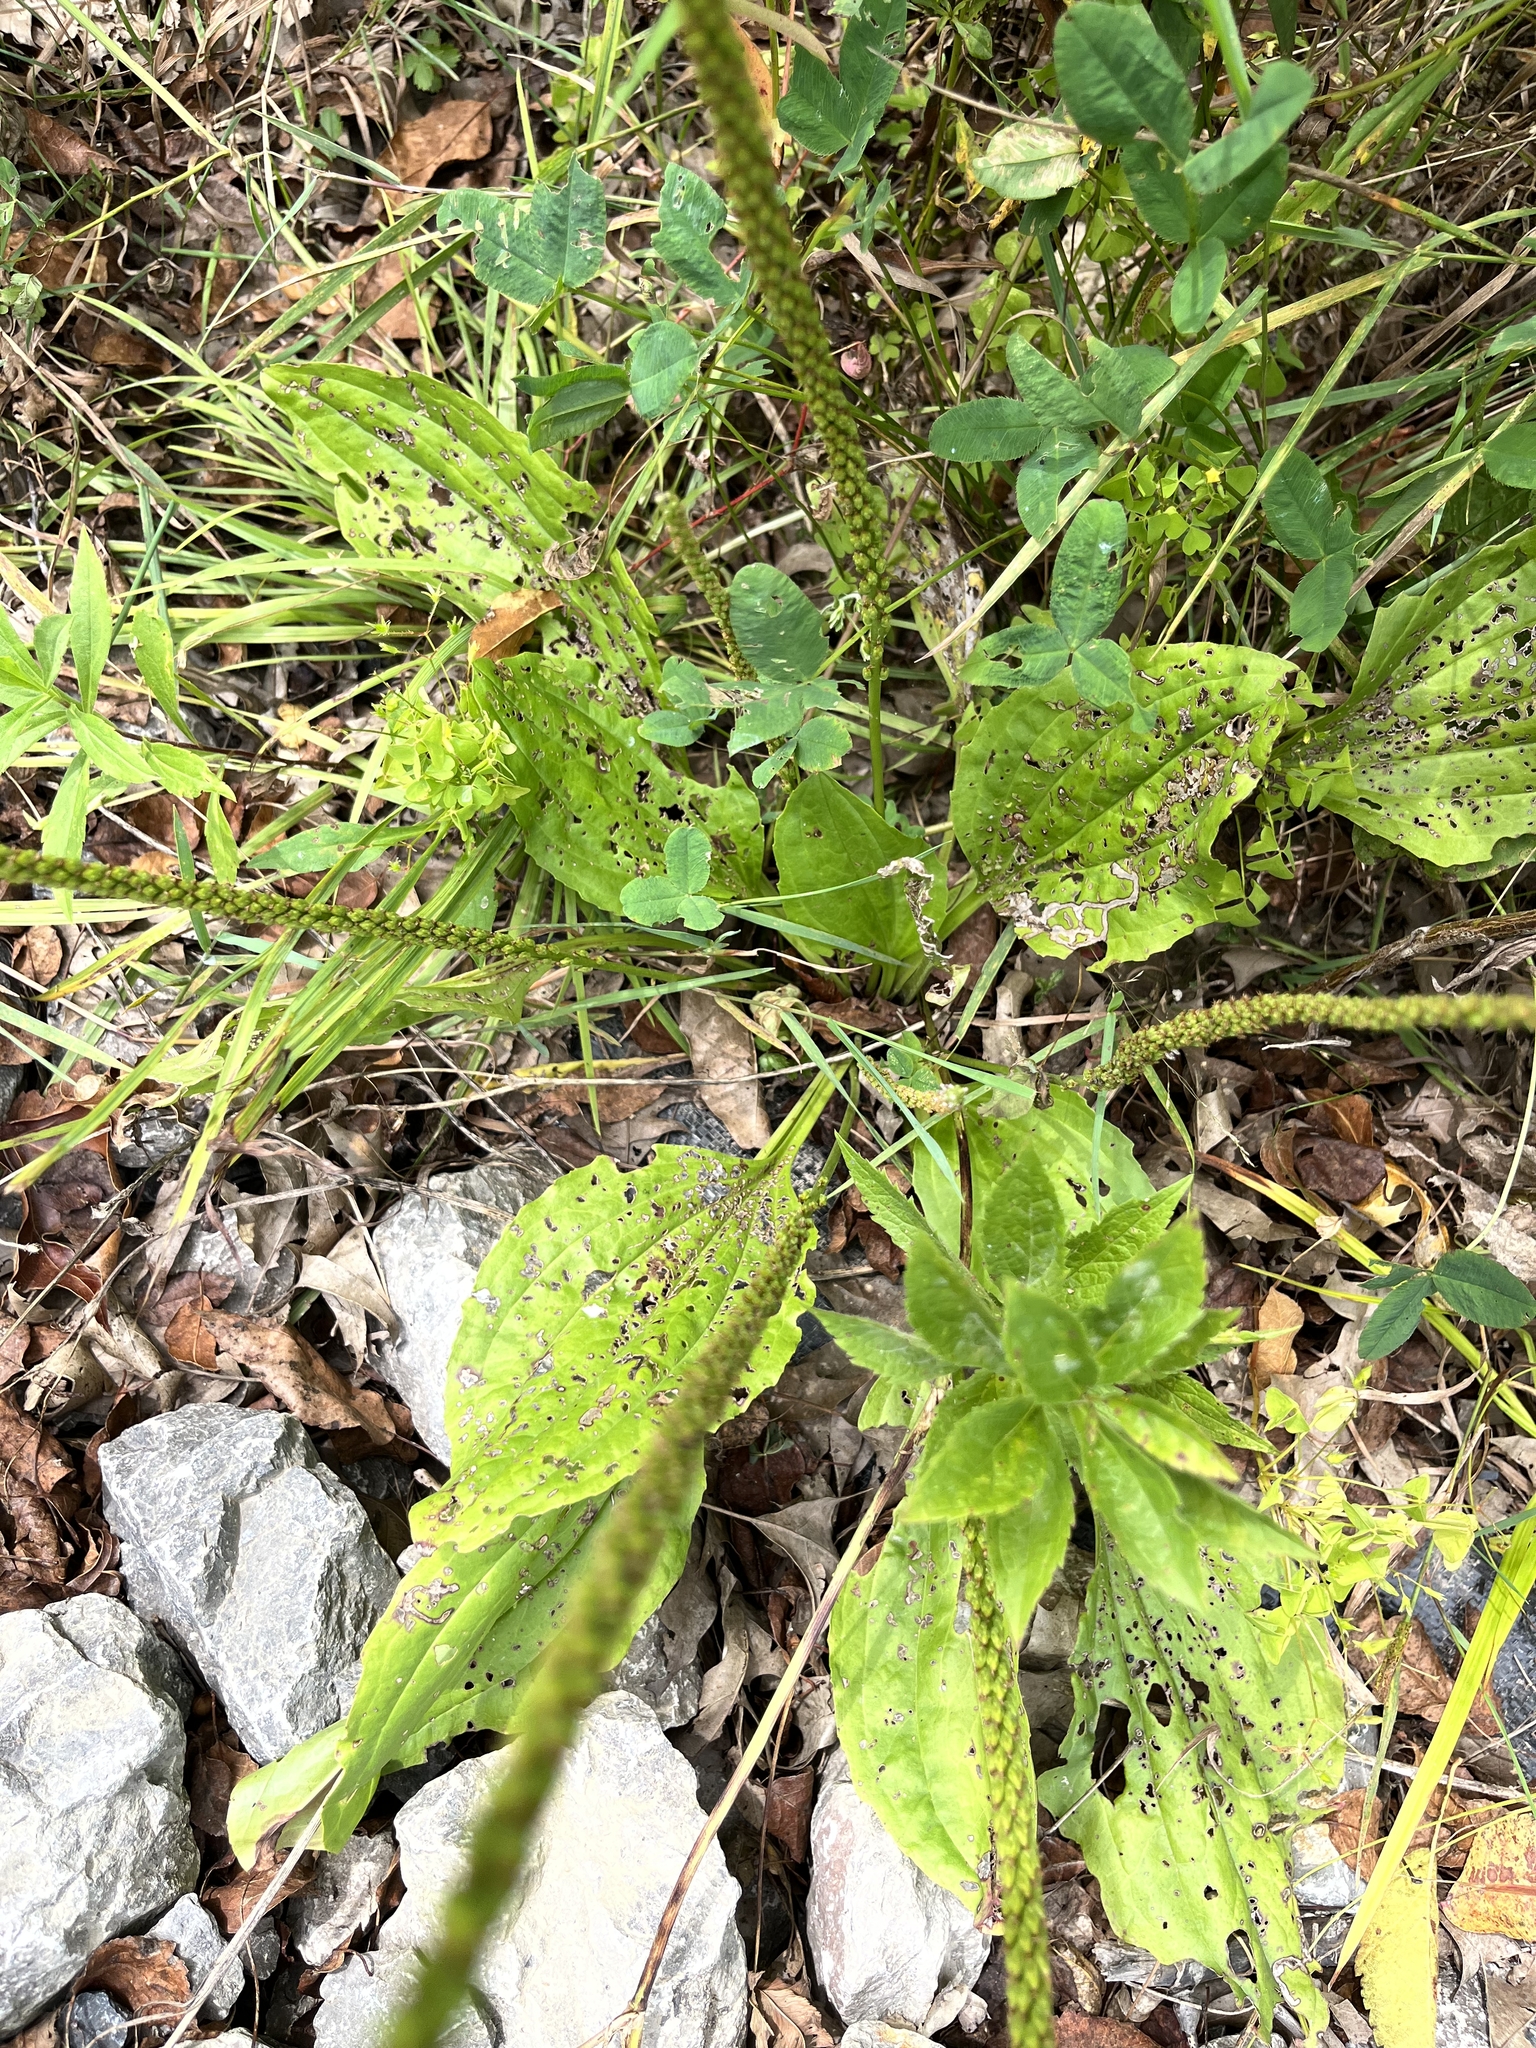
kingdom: Plantae
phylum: Tracheophyta
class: Magnoliopsida
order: Lamiales
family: Plantaginaceae
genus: Plantago
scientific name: Plantago rugelii
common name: American plantain
